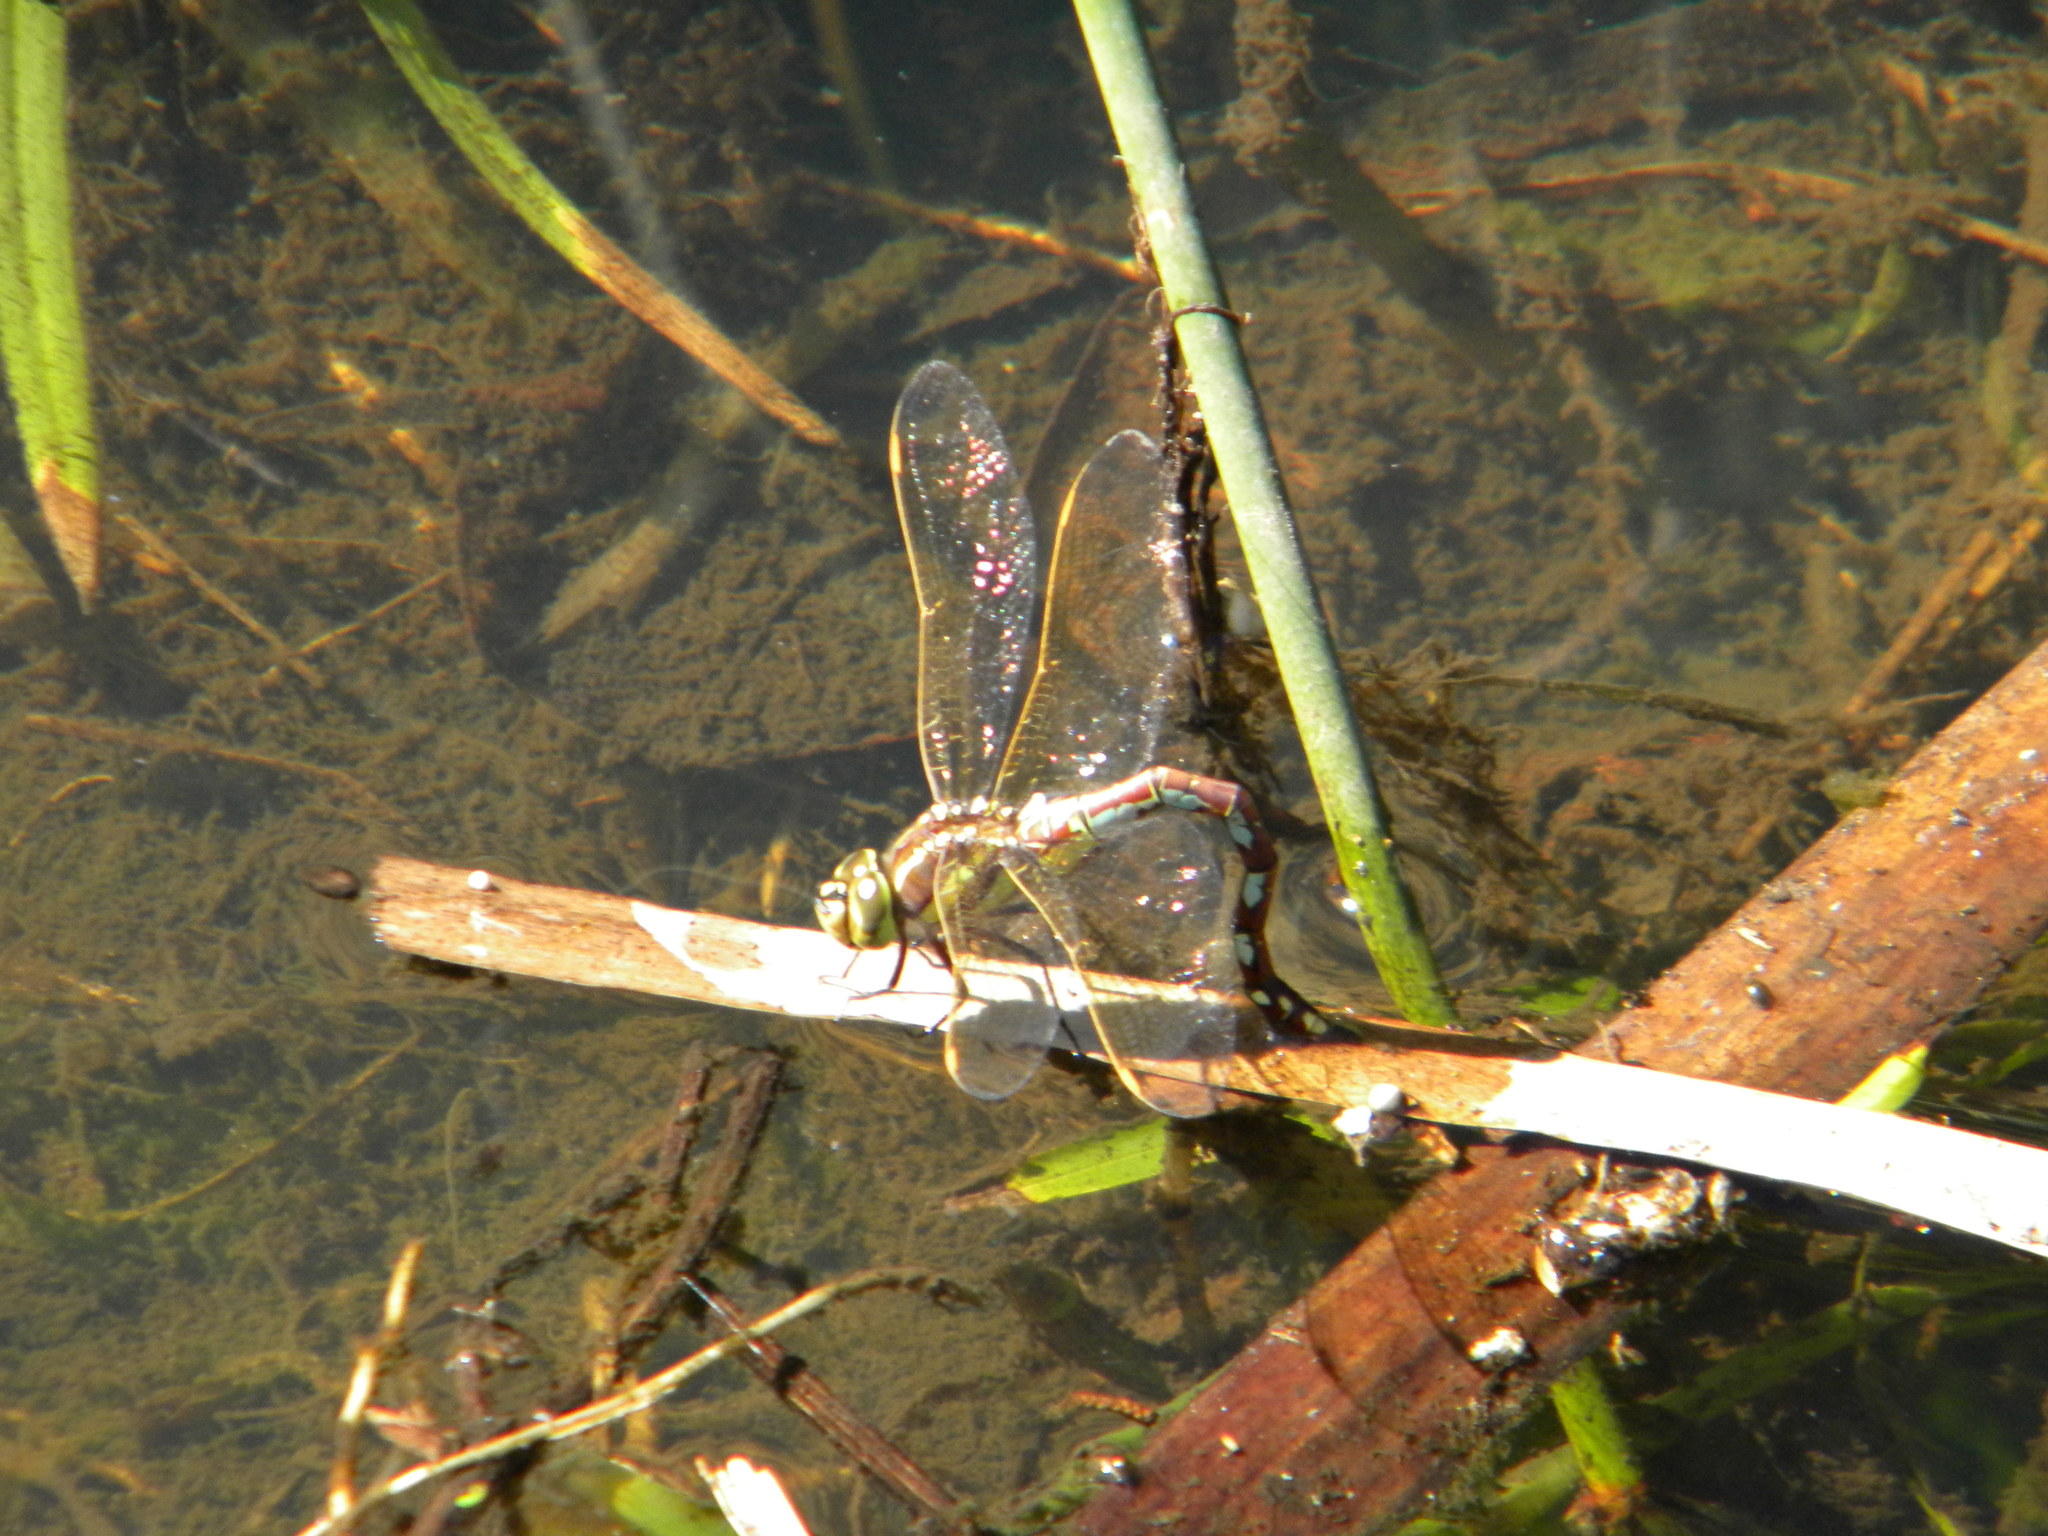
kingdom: Animalia
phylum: Arthropoda
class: Insecta
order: Odonata
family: Aeshnidae
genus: Zosteraeschna
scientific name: Zosteraeschna minuscula
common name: Friendly hawker
